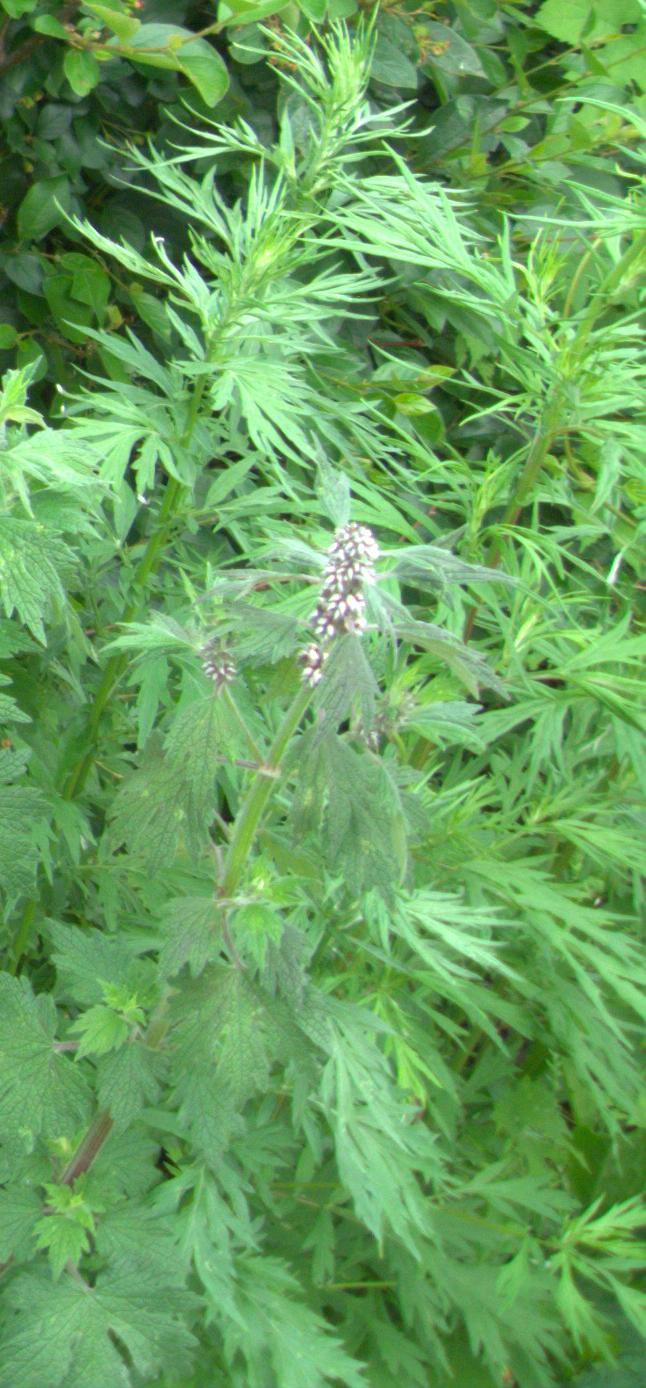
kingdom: Plantae
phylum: Tracheophyta
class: Magnoliopsida
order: Asterales
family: Asteraceae
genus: Artemisia
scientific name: Artemisia vulgaris
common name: Mugwort
